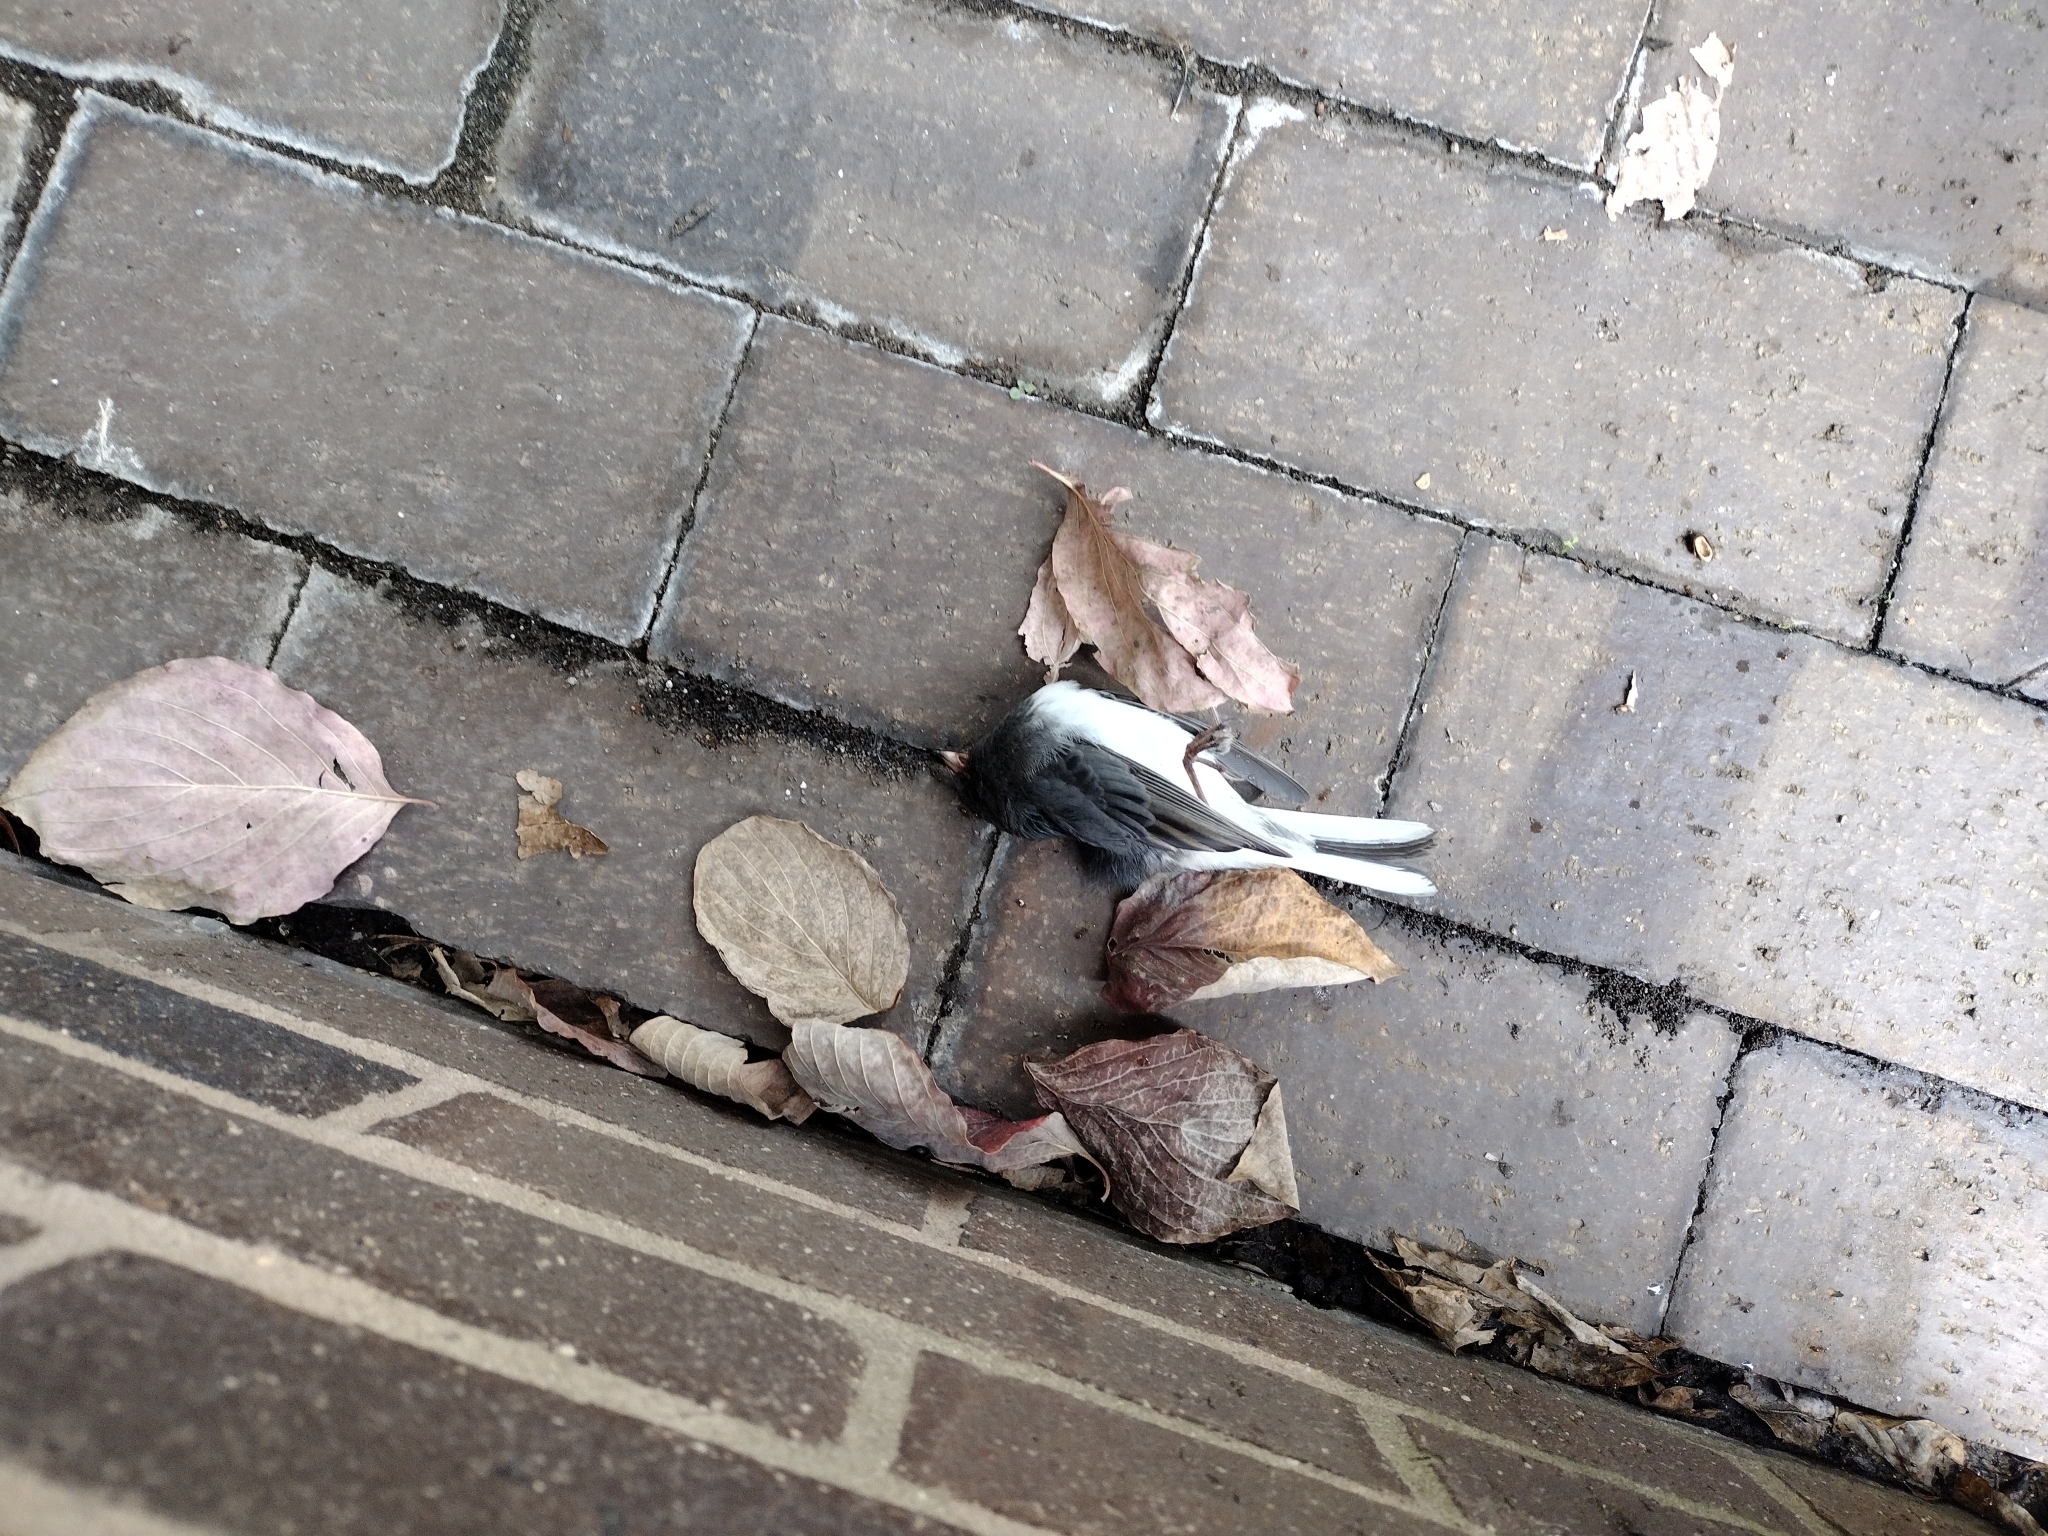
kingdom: Animalia
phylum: Chordata
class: Aves
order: Passeriformes
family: Passerellidae
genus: Junco
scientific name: Junco hyemalis
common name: Dark-eyed junco
